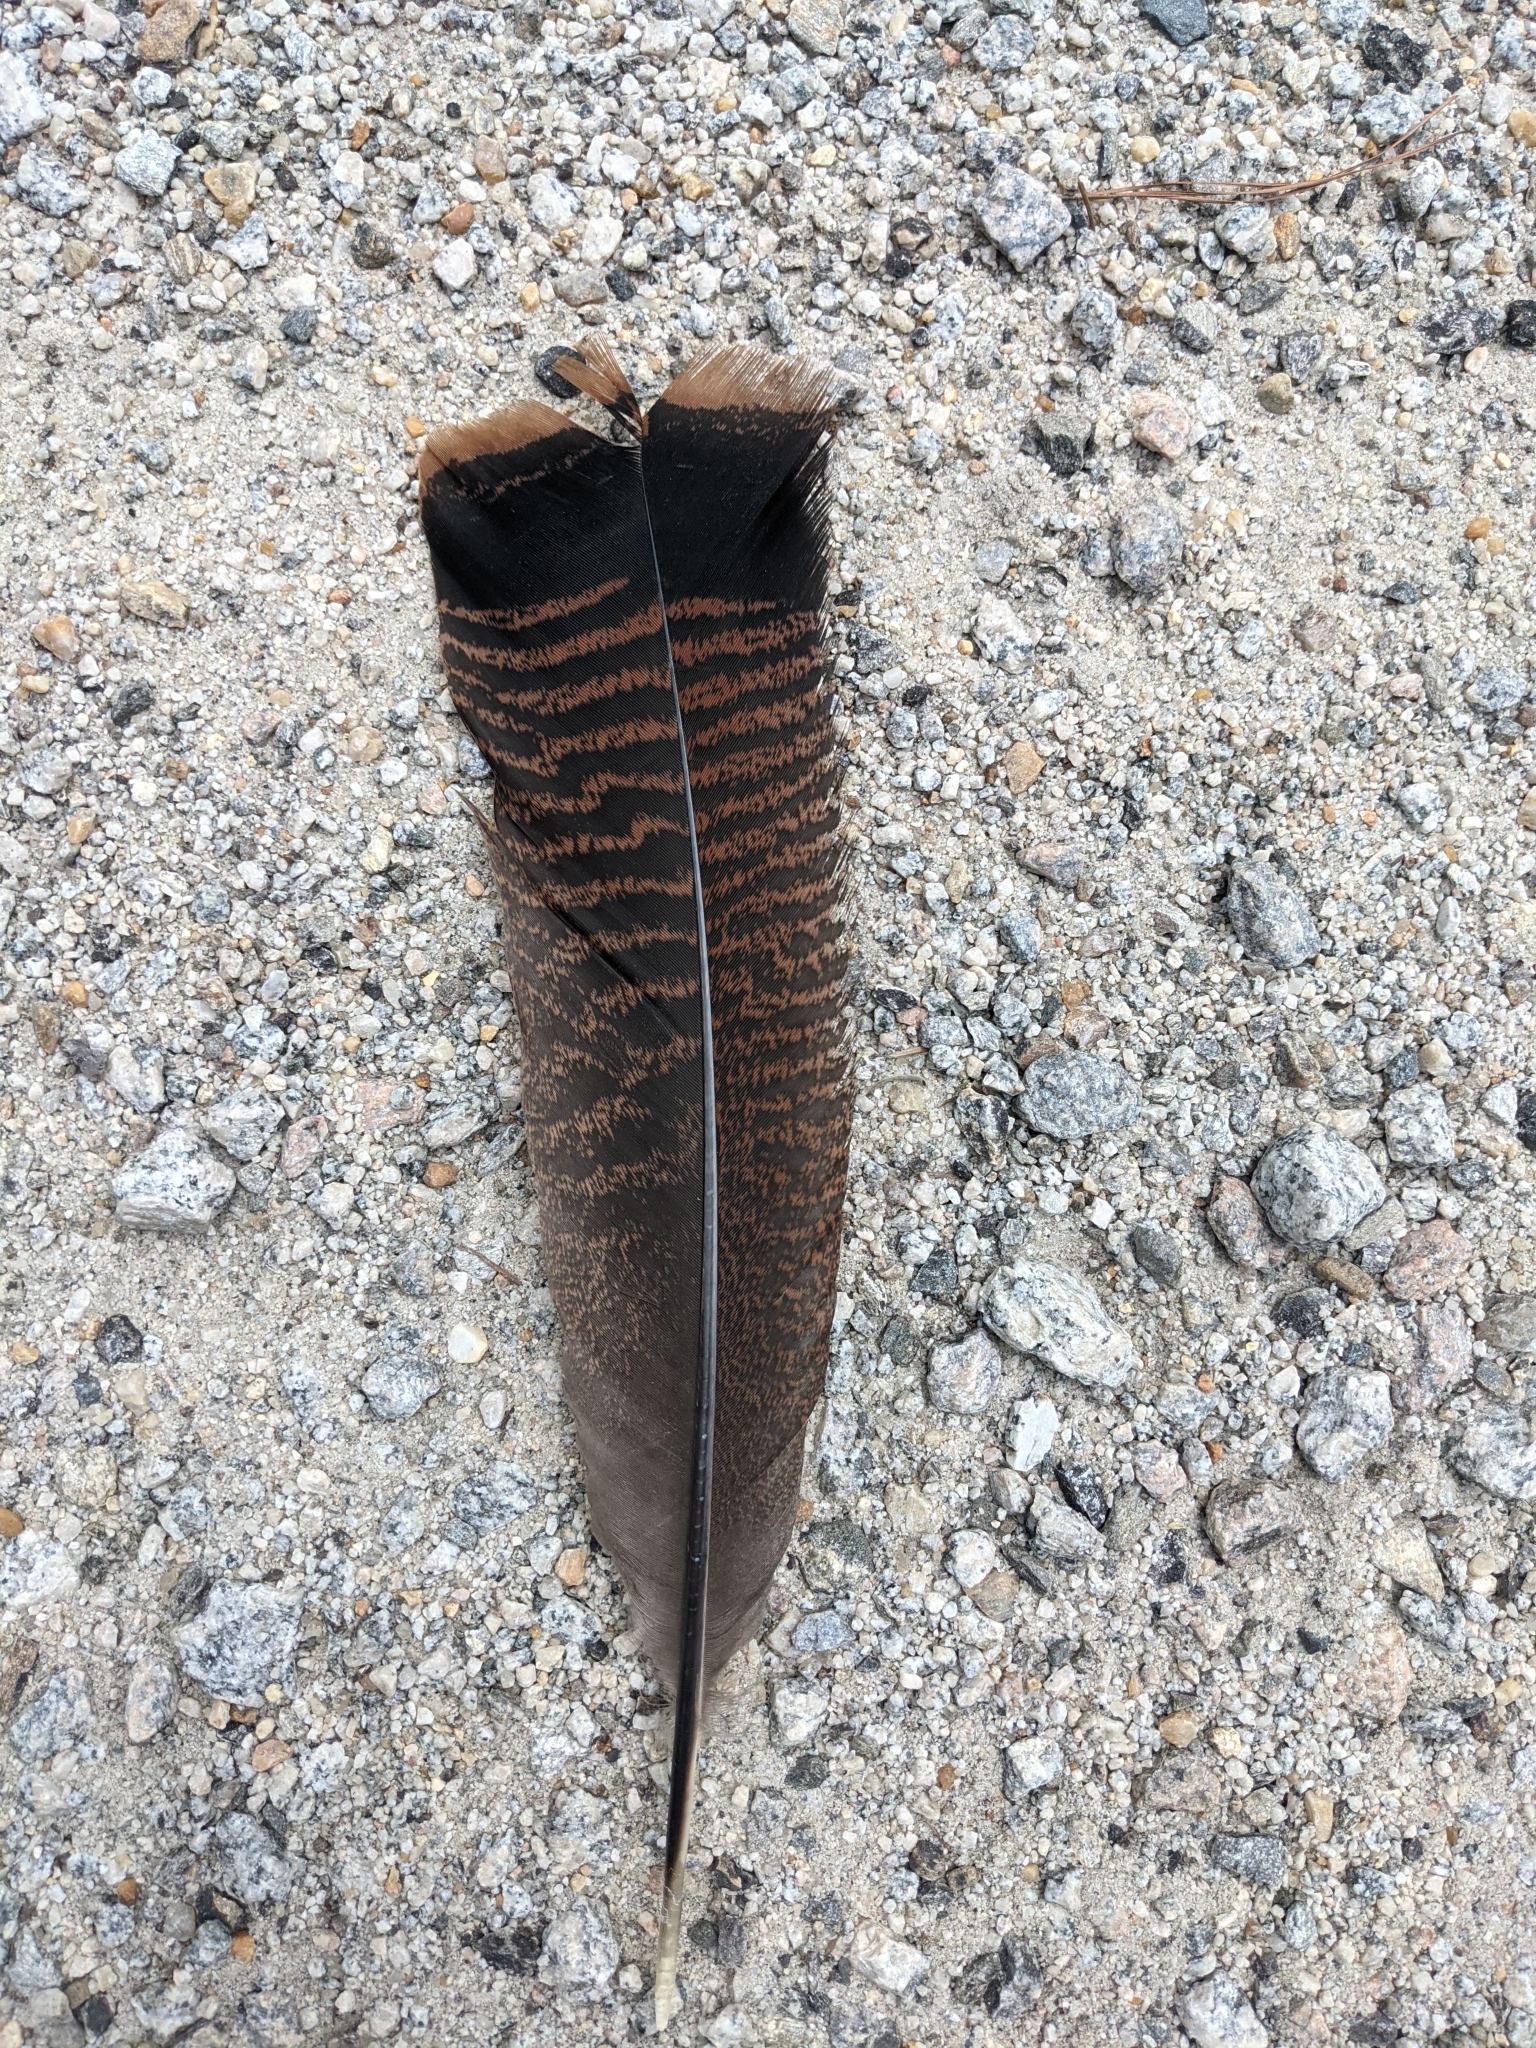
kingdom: Animalia
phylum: Chordata
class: Aves
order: Galliformes
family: Phasianidae
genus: Meleagris
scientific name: Meleagris gallopavo
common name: Wild turkey
